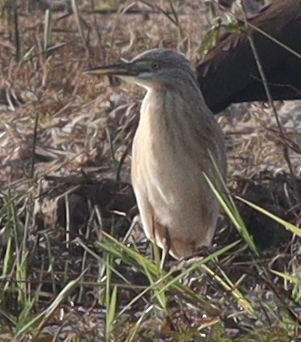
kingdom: Animalia
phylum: Chordata
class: Aves
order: Pelecaniformes
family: Ardeidae
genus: Ardeola
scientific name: Ardeola ralloides
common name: Squacco heron
